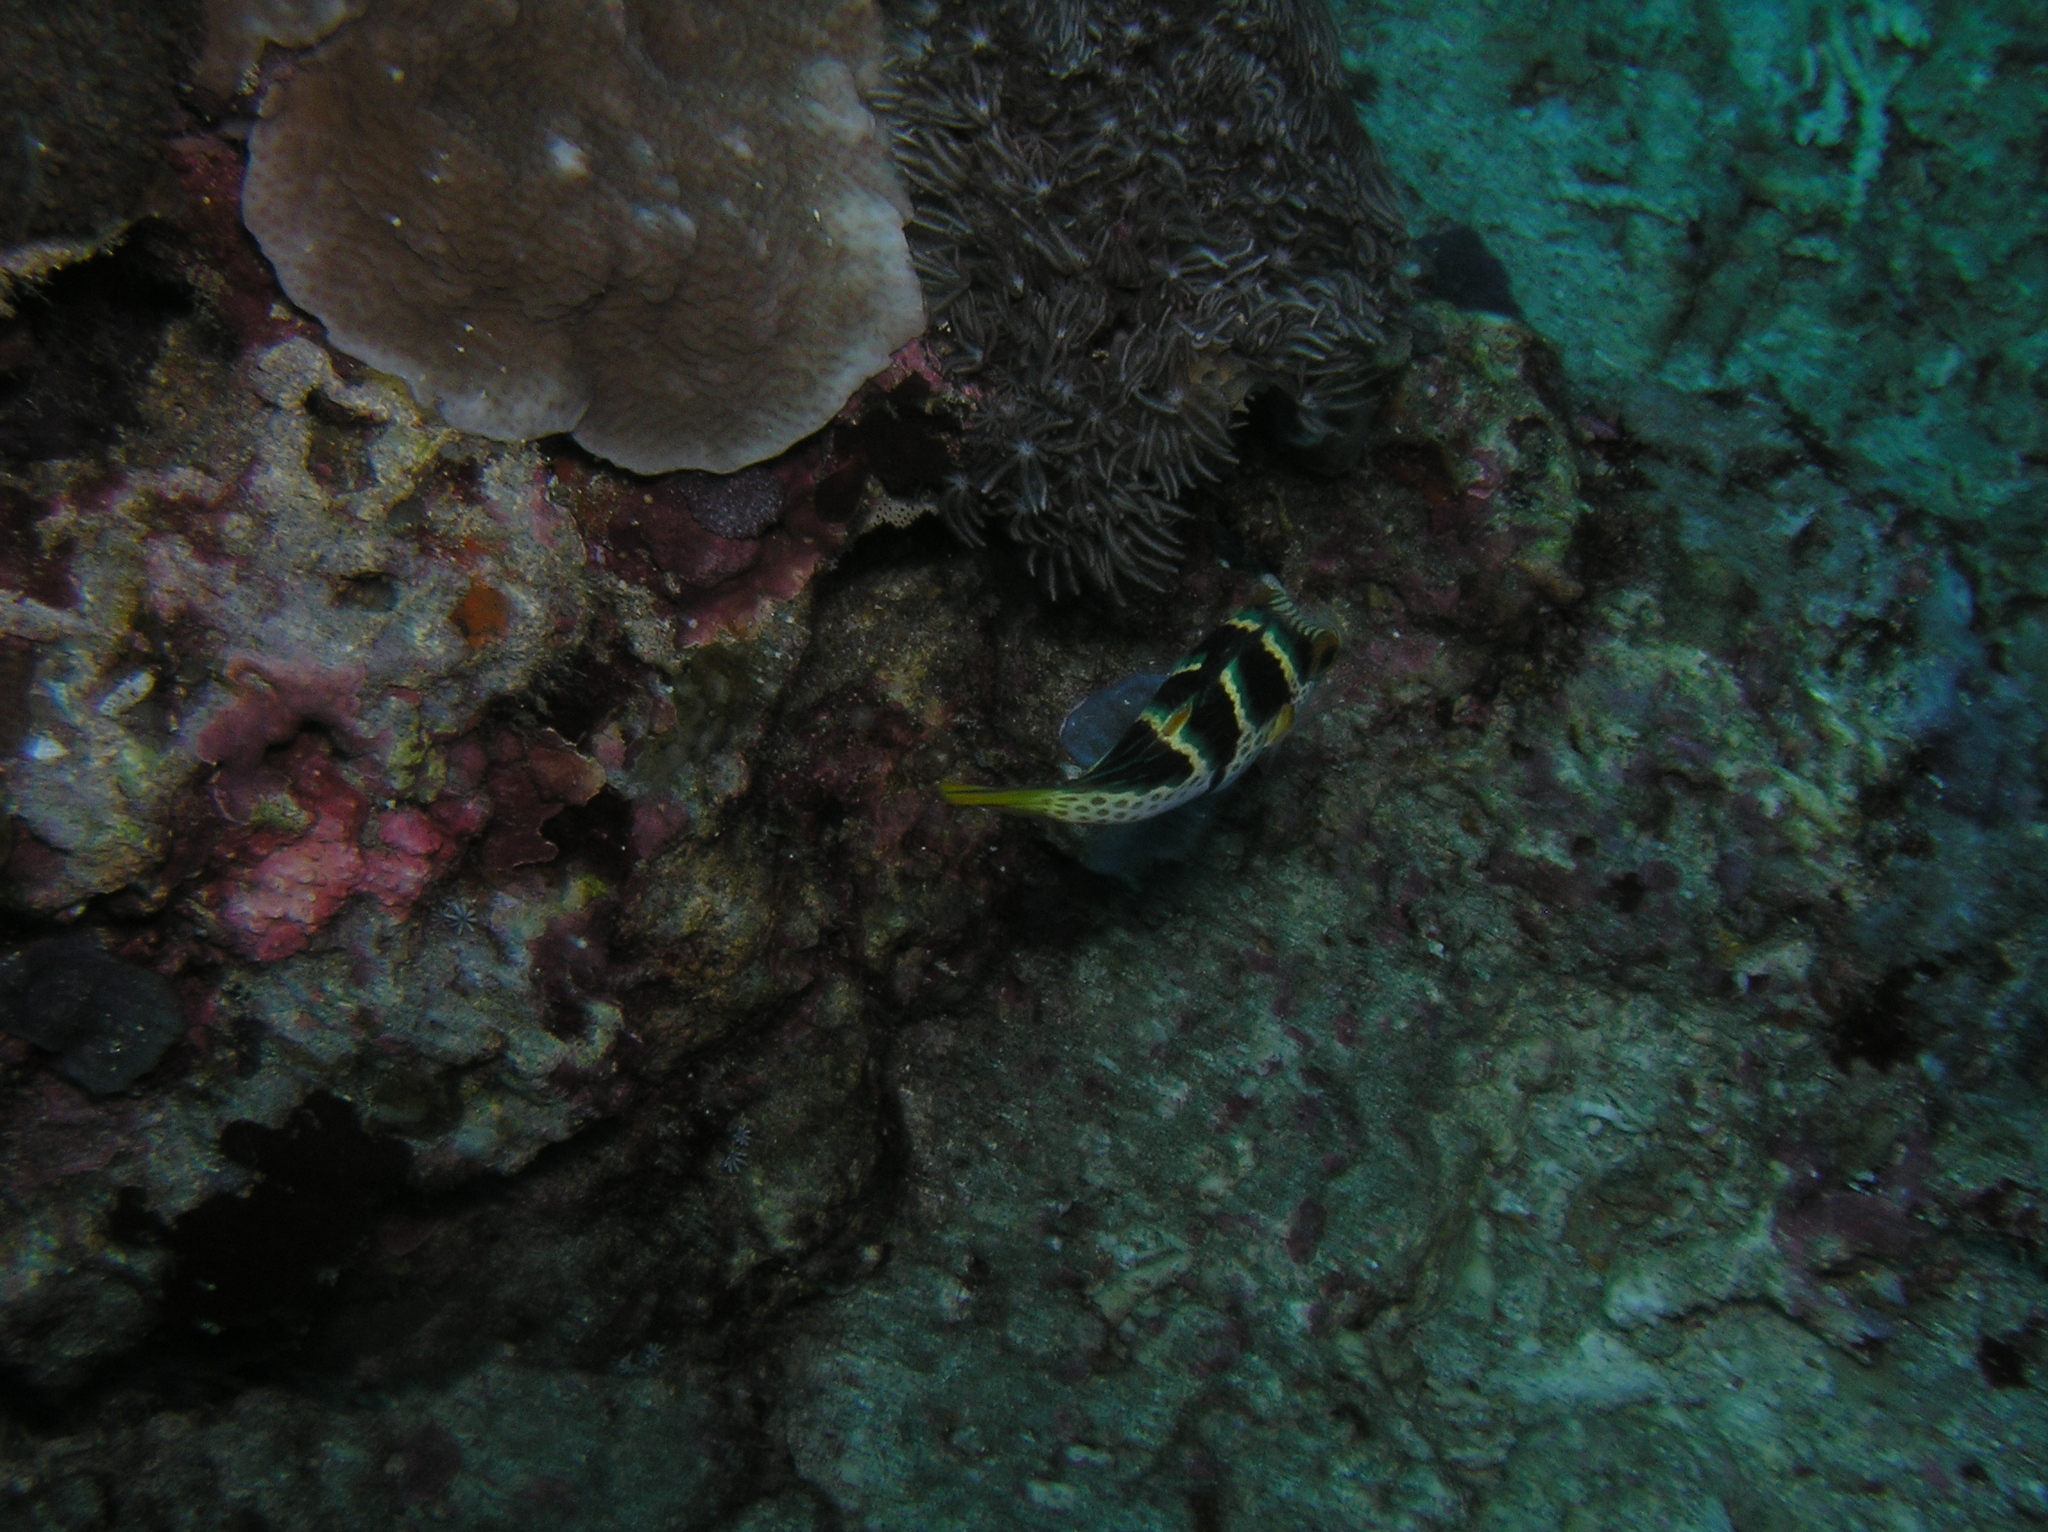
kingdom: Animalia
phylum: Chordata
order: Tetraodontiformes
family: Tetraodontidae
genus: Canthigaster
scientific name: Canthigaster valentini
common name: Banded toby
